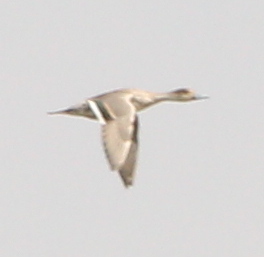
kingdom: Animalia
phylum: Chordata
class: Aves
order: Anseriformes
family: Anatidae
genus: Anas
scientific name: Anas acuta
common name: Northern pintail
